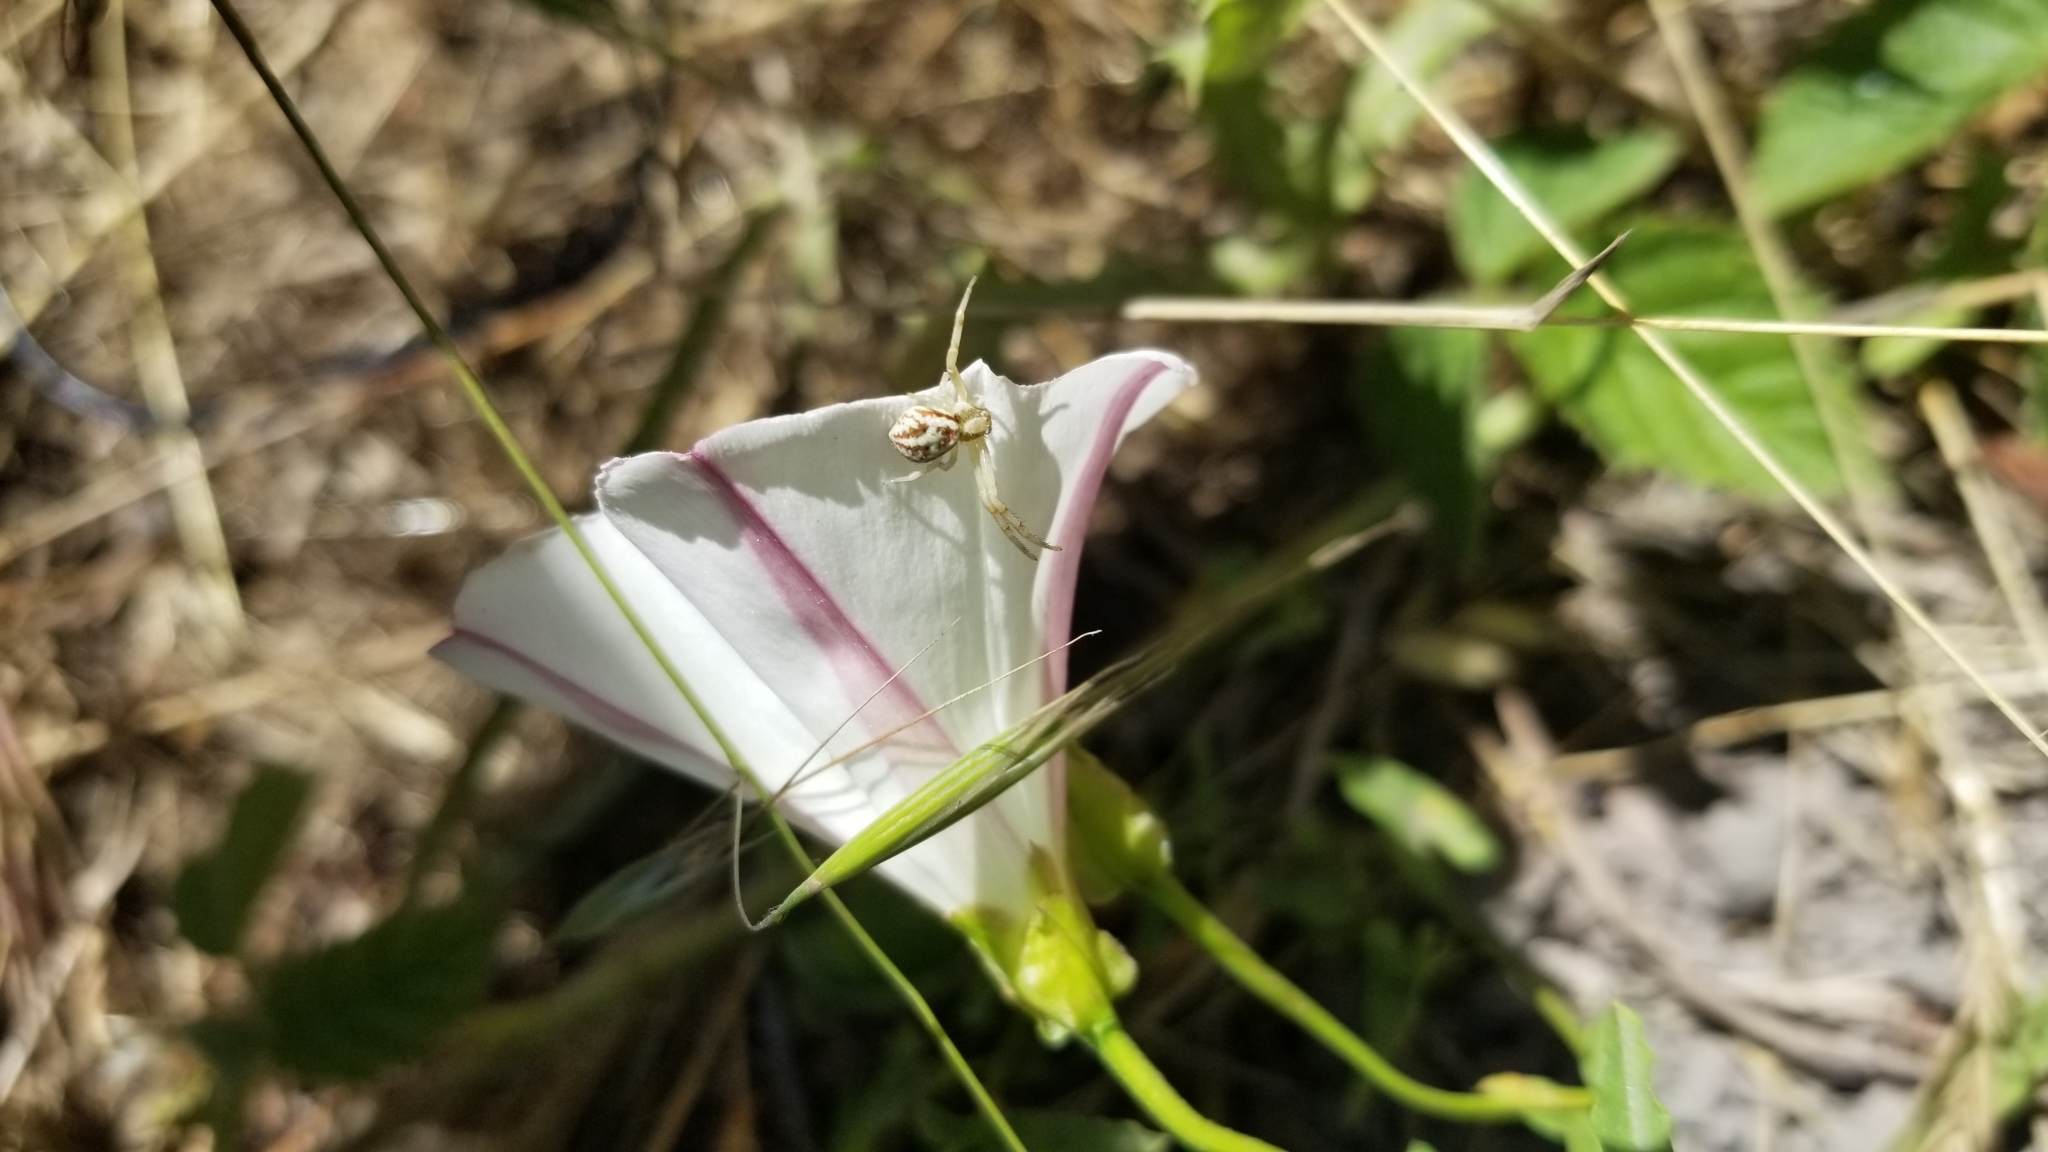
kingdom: Plantae
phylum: Tracheophyta
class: Magnoliopsida
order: Solanales
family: Convolvulaceae
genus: Calystegia
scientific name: Calystegia macrostegia
